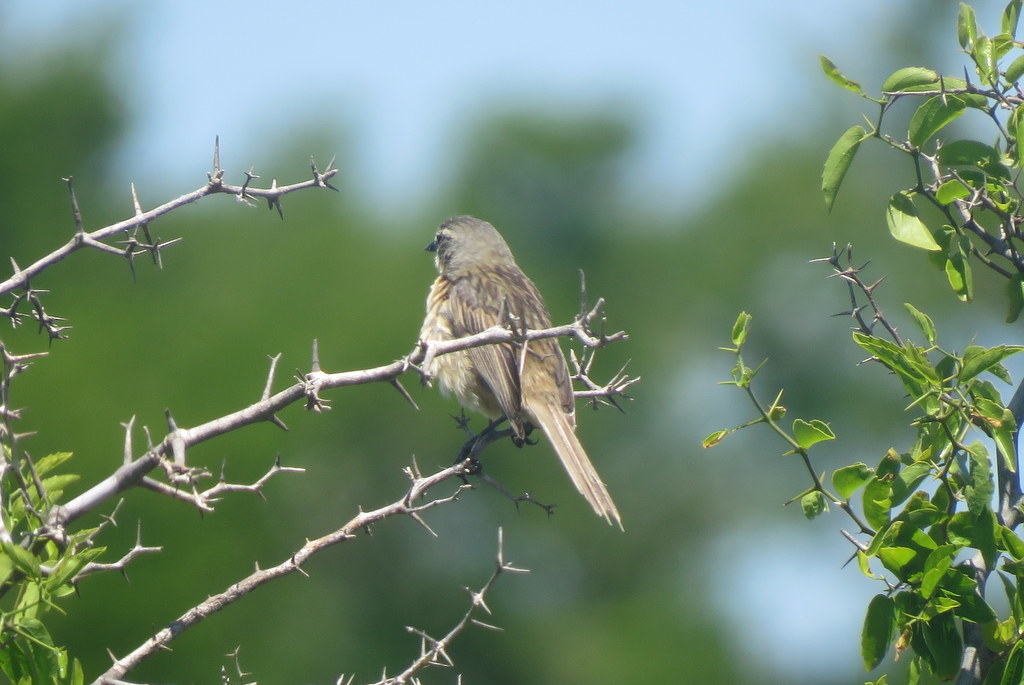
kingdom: Animalia
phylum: Chordata
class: Aves
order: Passeriformes
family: Thraupidae
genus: Donacospiza
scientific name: Donacospiza albifrons
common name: Long-tailed reed finch
